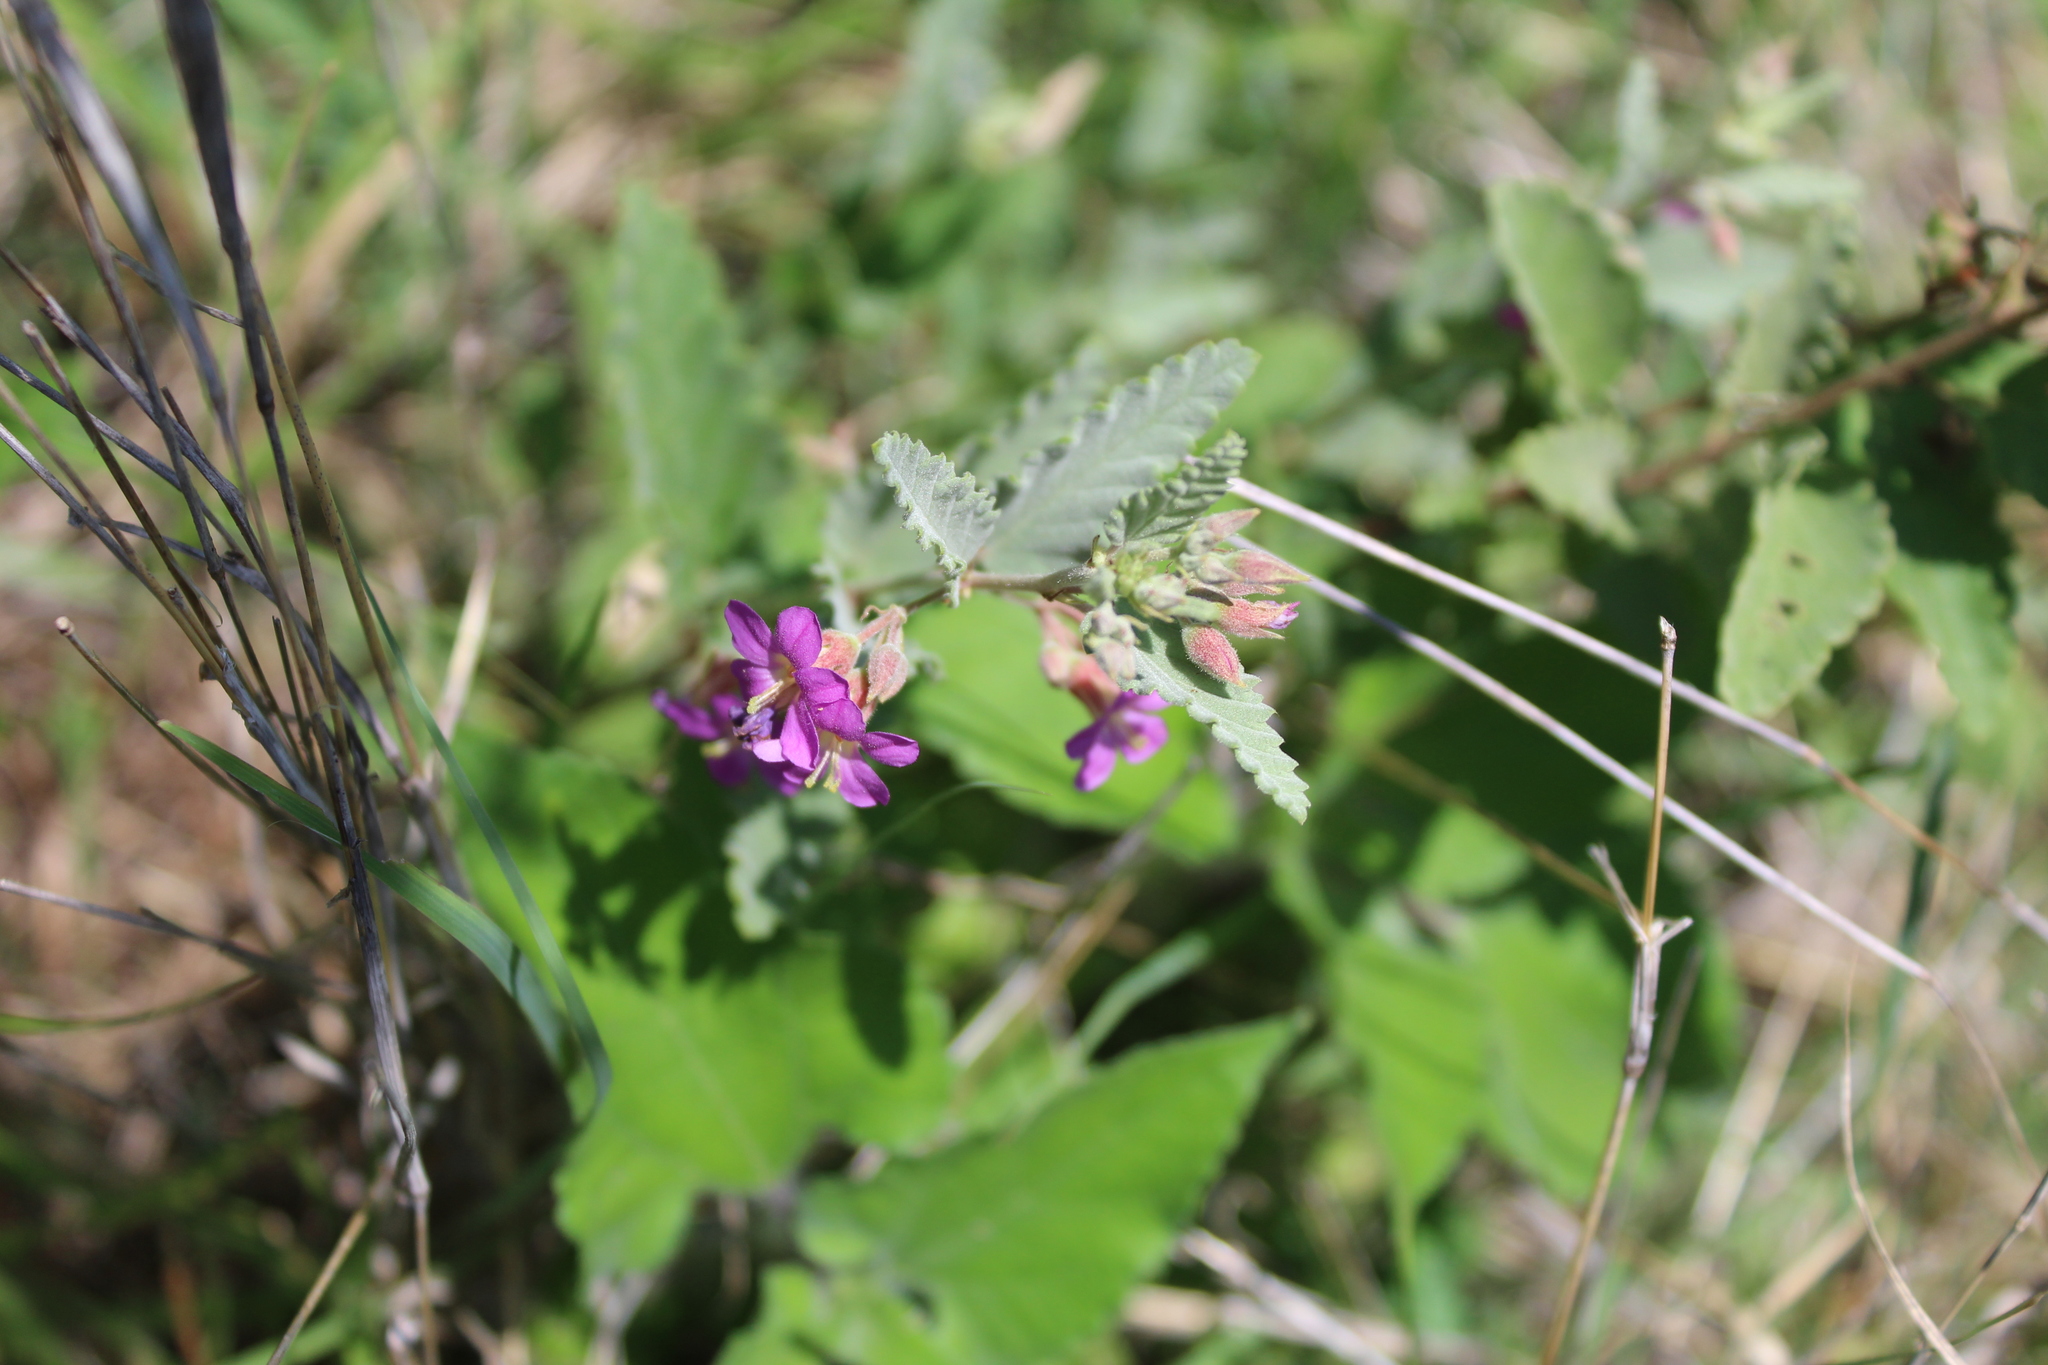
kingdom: Plantae
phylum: Tracheophyta
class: Magnoliopsida
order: Malvales
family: Malvaceae
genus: Melochia
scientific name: Melochia tomentosa
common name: Black torch
